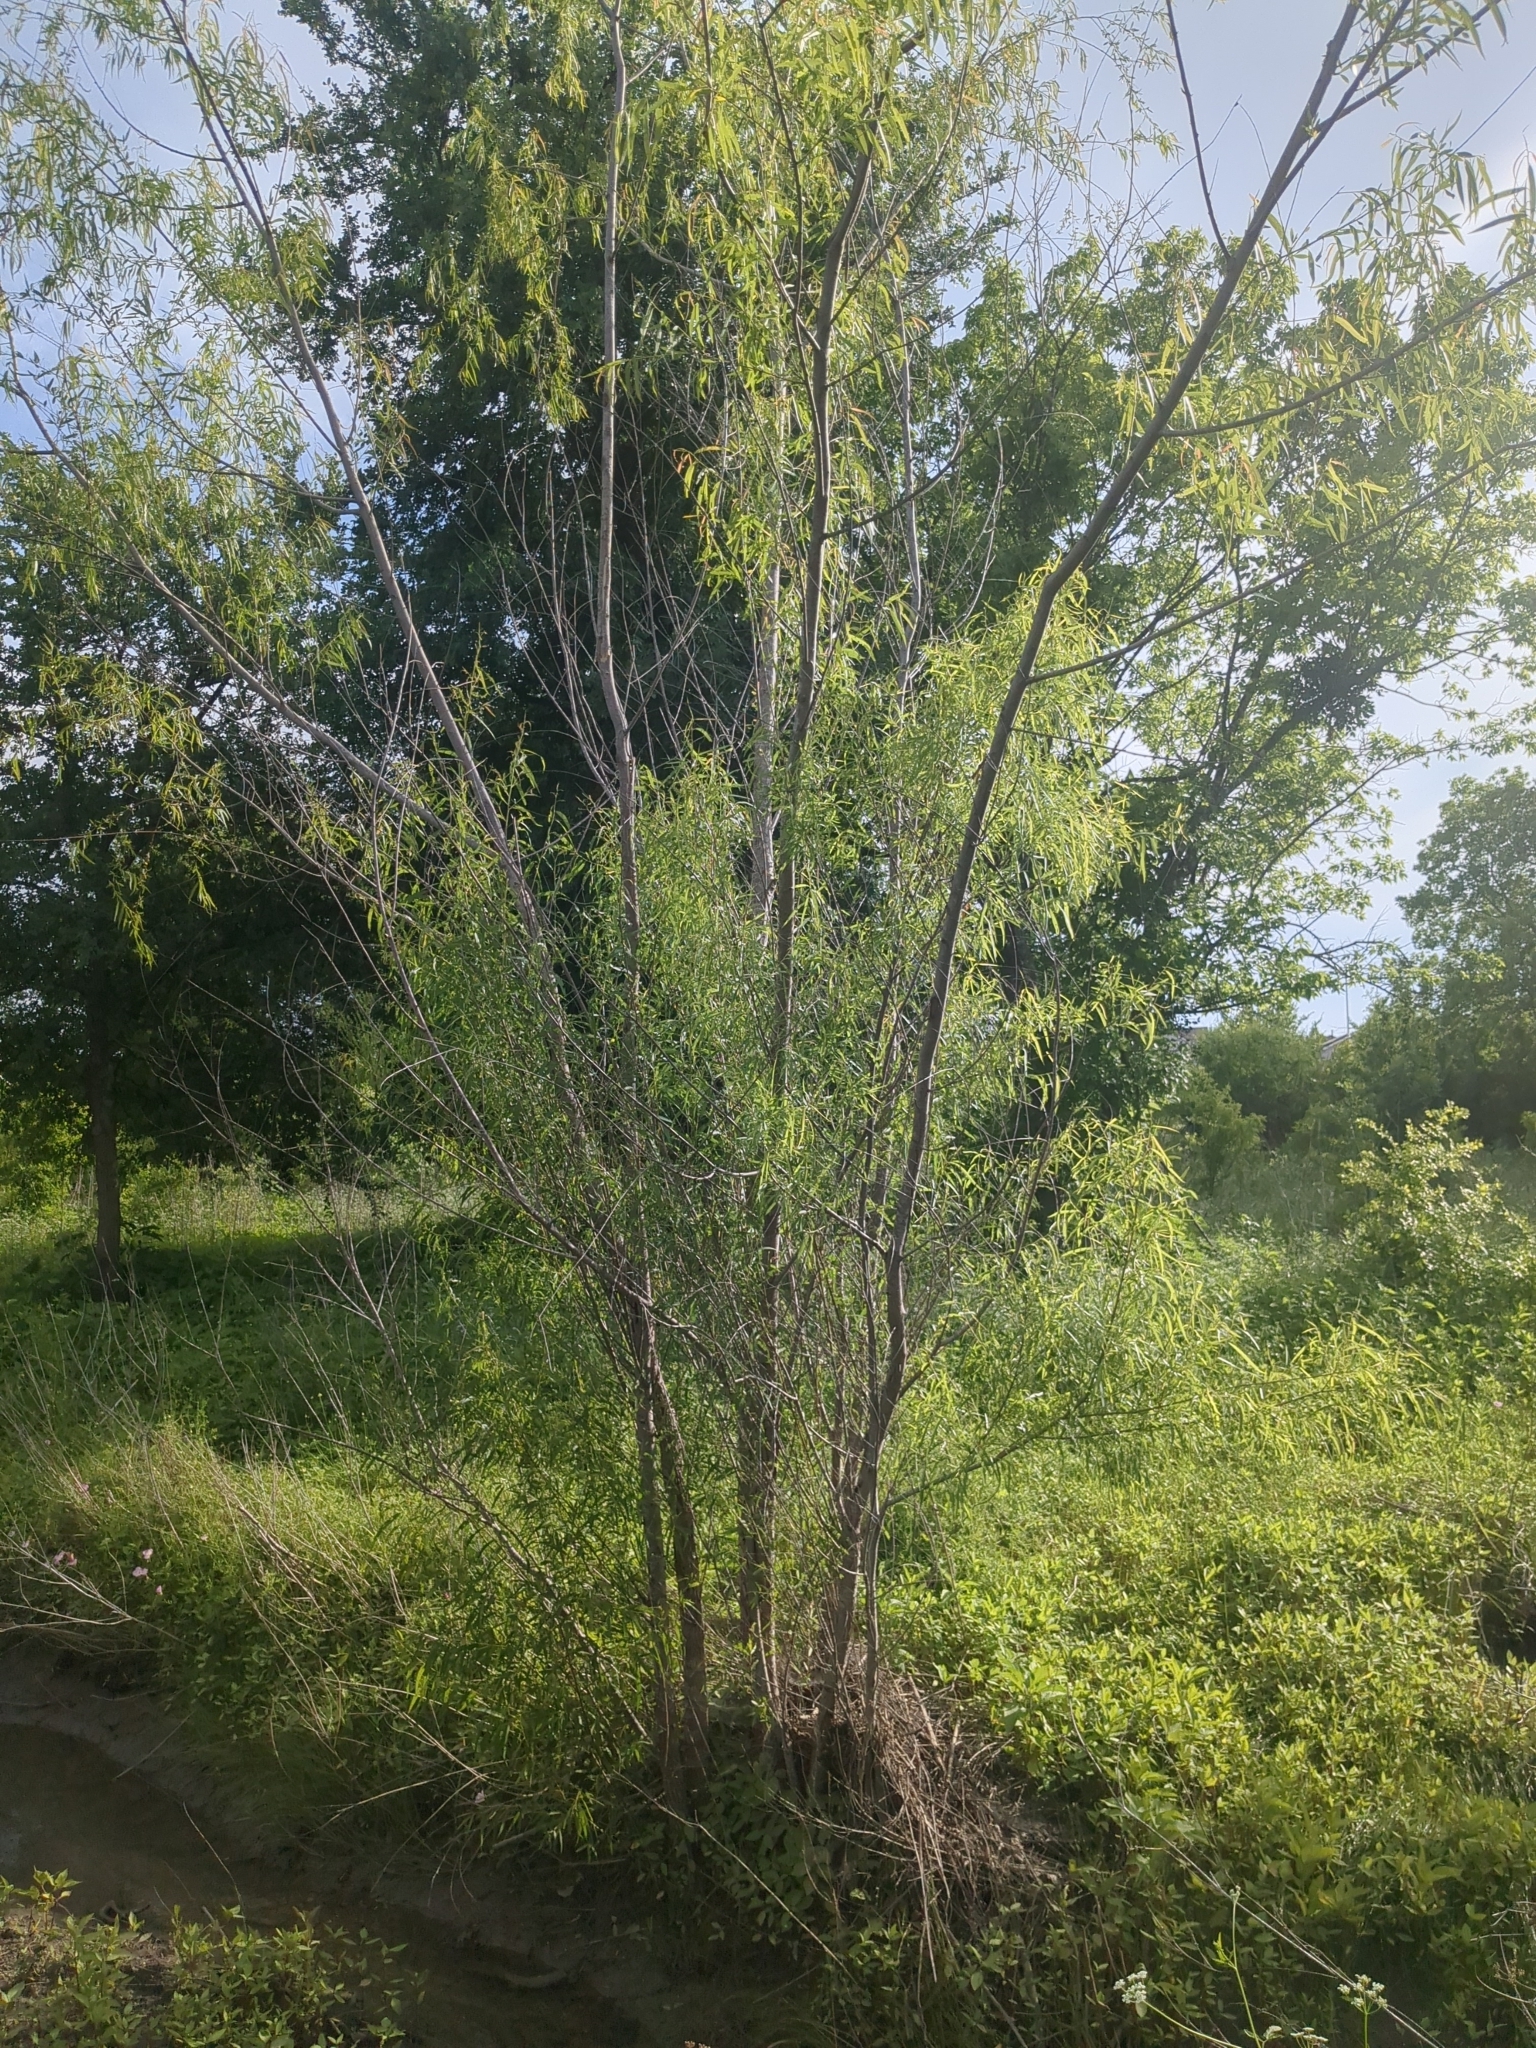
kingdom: Plantae
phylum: Tracheophyta
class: Magnoliopsida
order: Malpighiales
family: Salicaceae
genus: Salix
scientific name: Salix nigra
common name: Black willow
